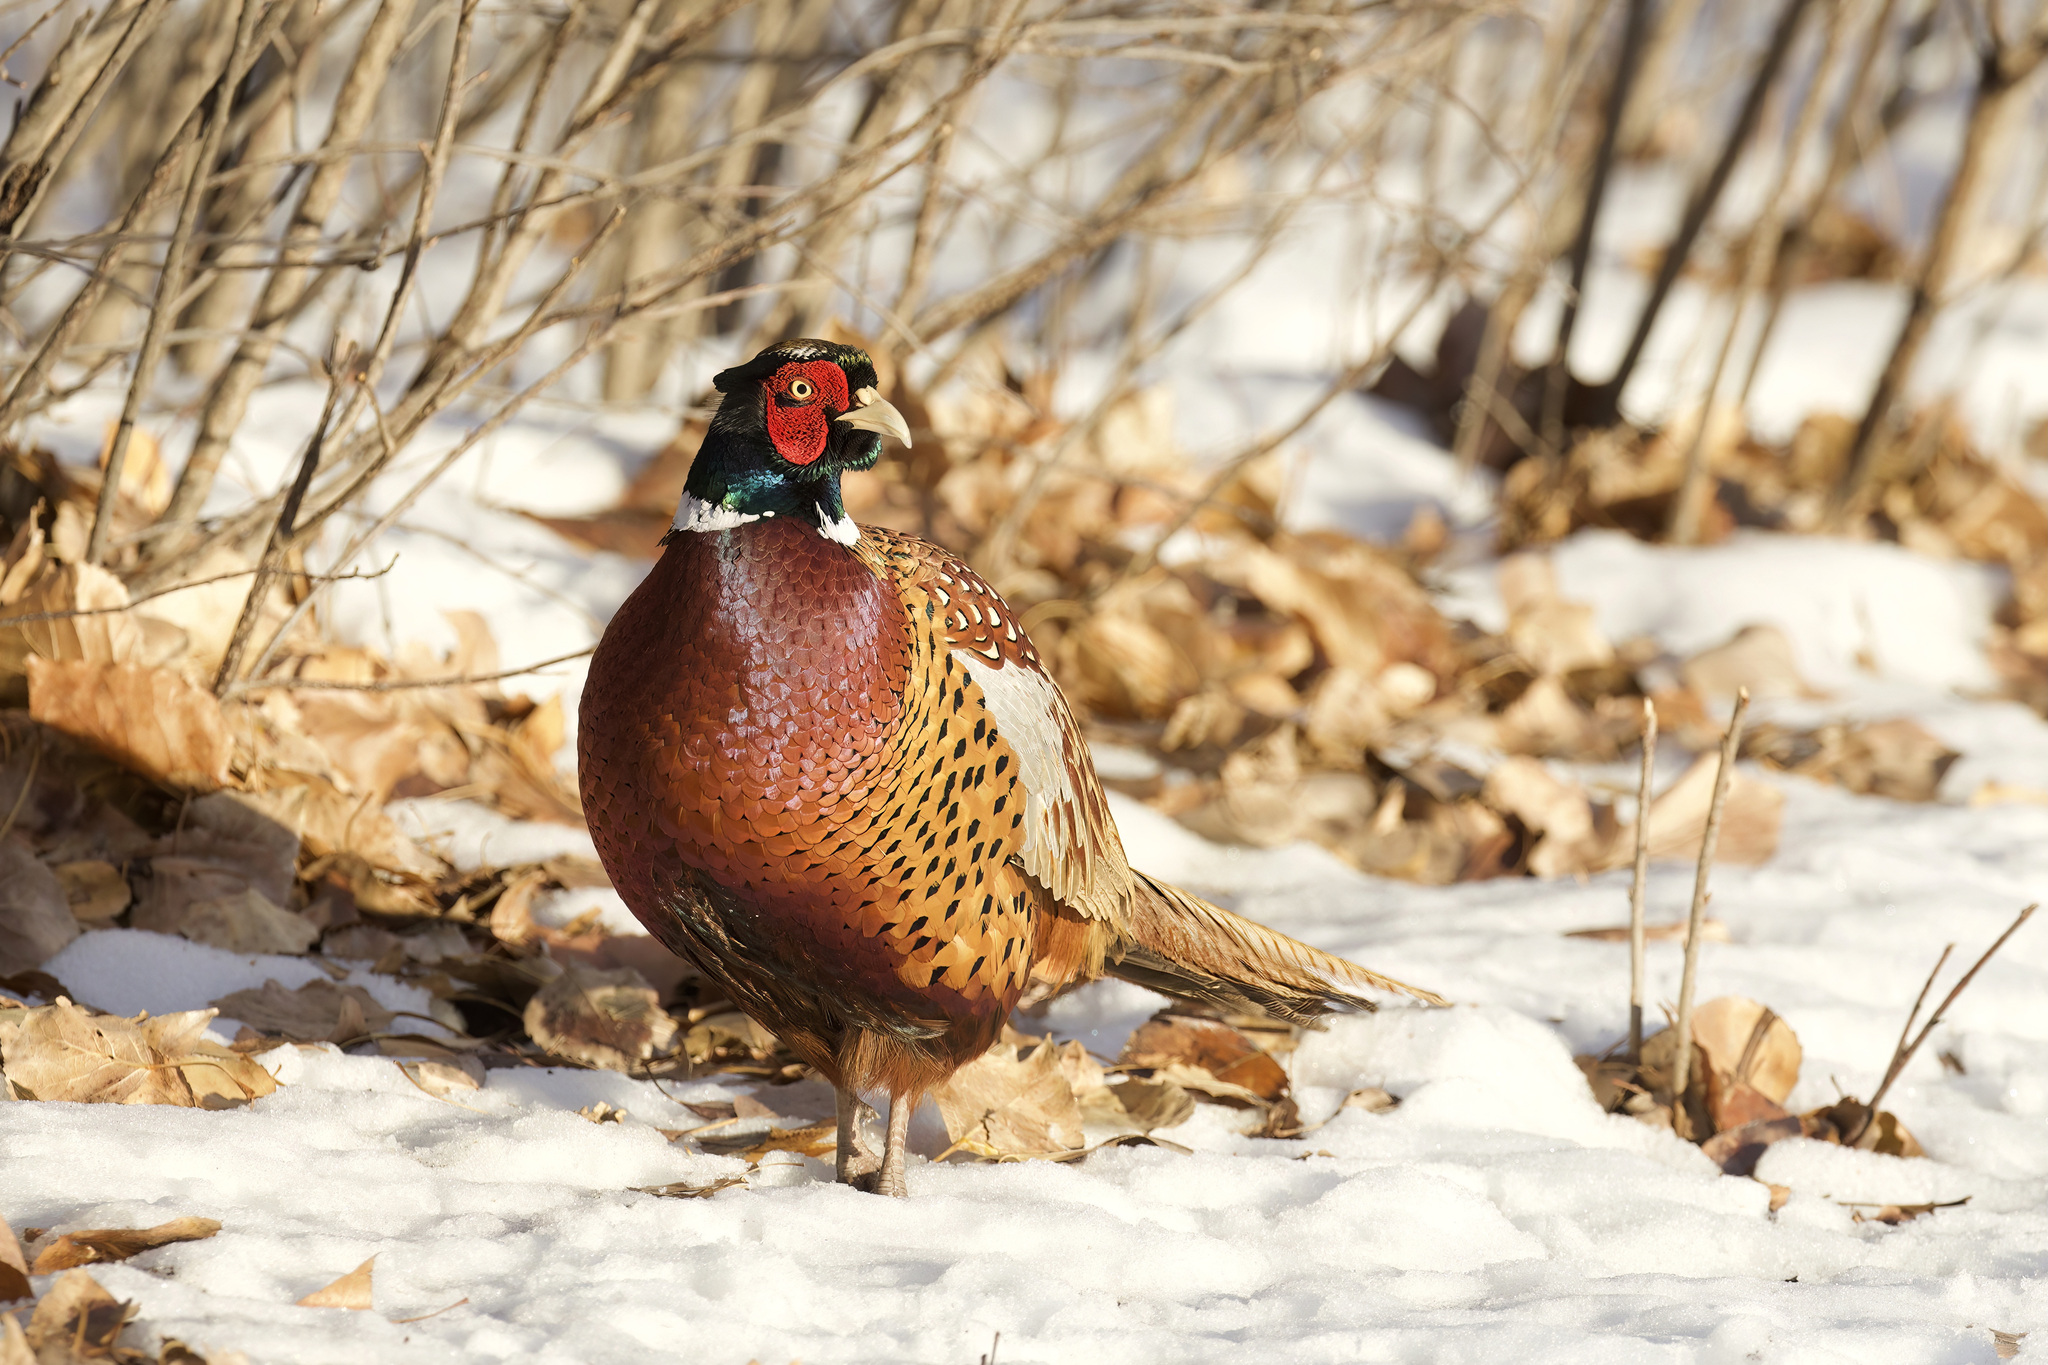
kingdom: Animalia
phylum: Chordata
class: Aves
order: Galliformes
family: Phasianidae
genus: Phasianus
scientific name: Phasianus colchicus
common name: Common pheasant
